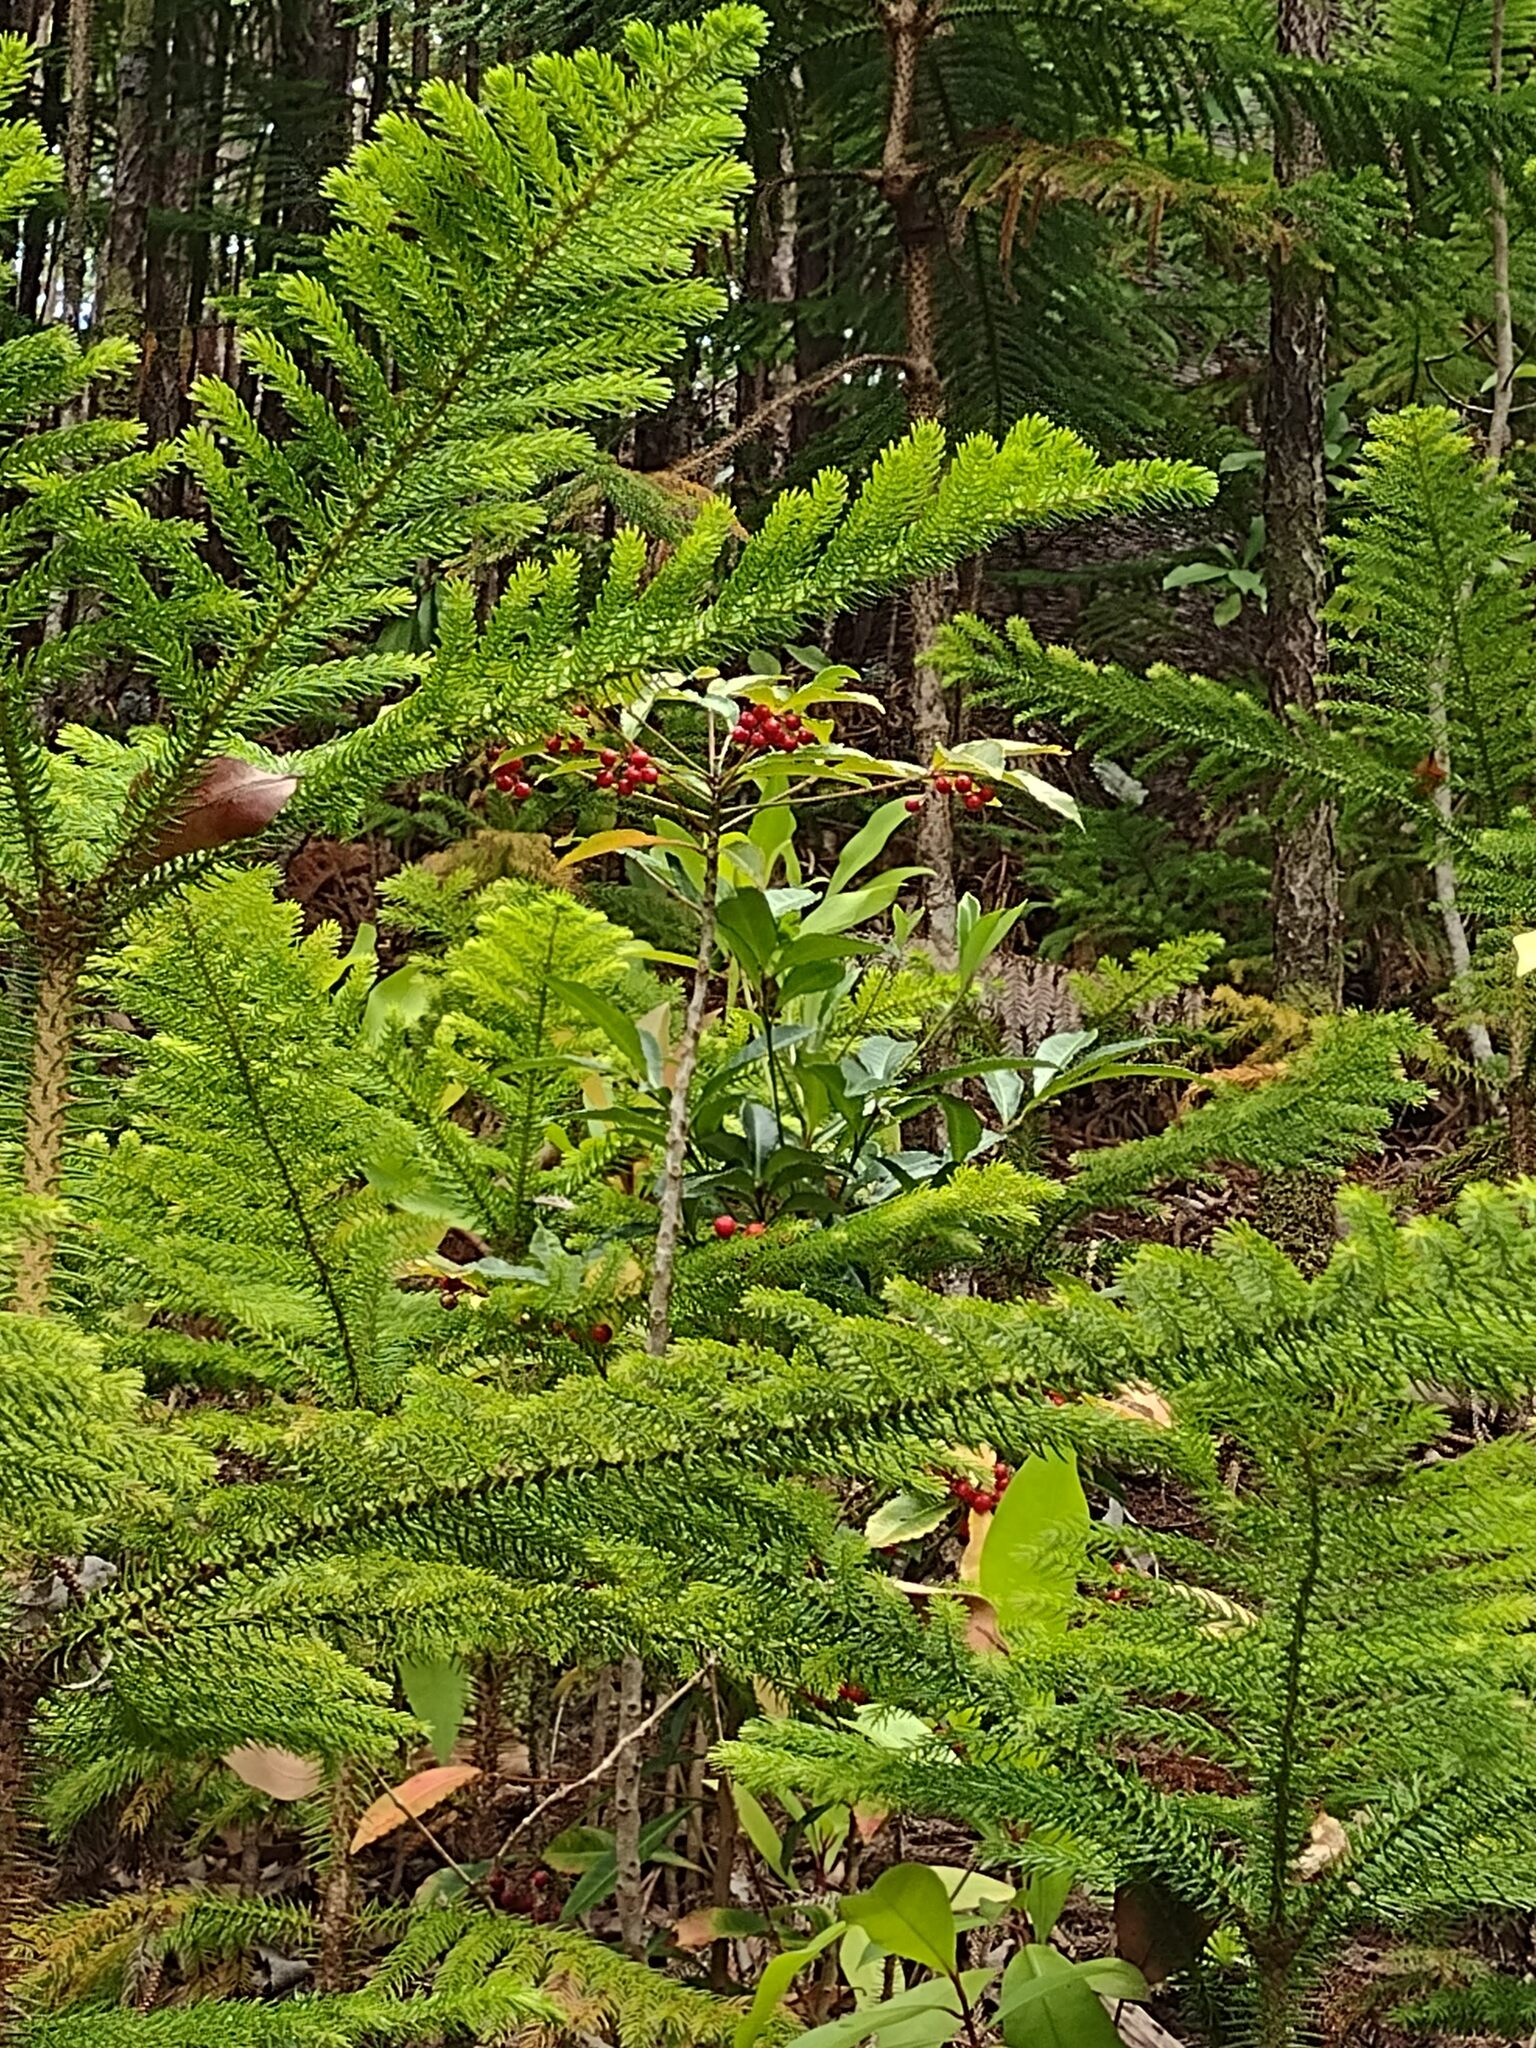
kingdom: Plantae
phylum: Tracheophyta
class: Magnoliopsida
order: Ericales
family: Primulaceae
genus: Ardisia
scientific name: Ardisia crenata
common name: Hen's eyes
